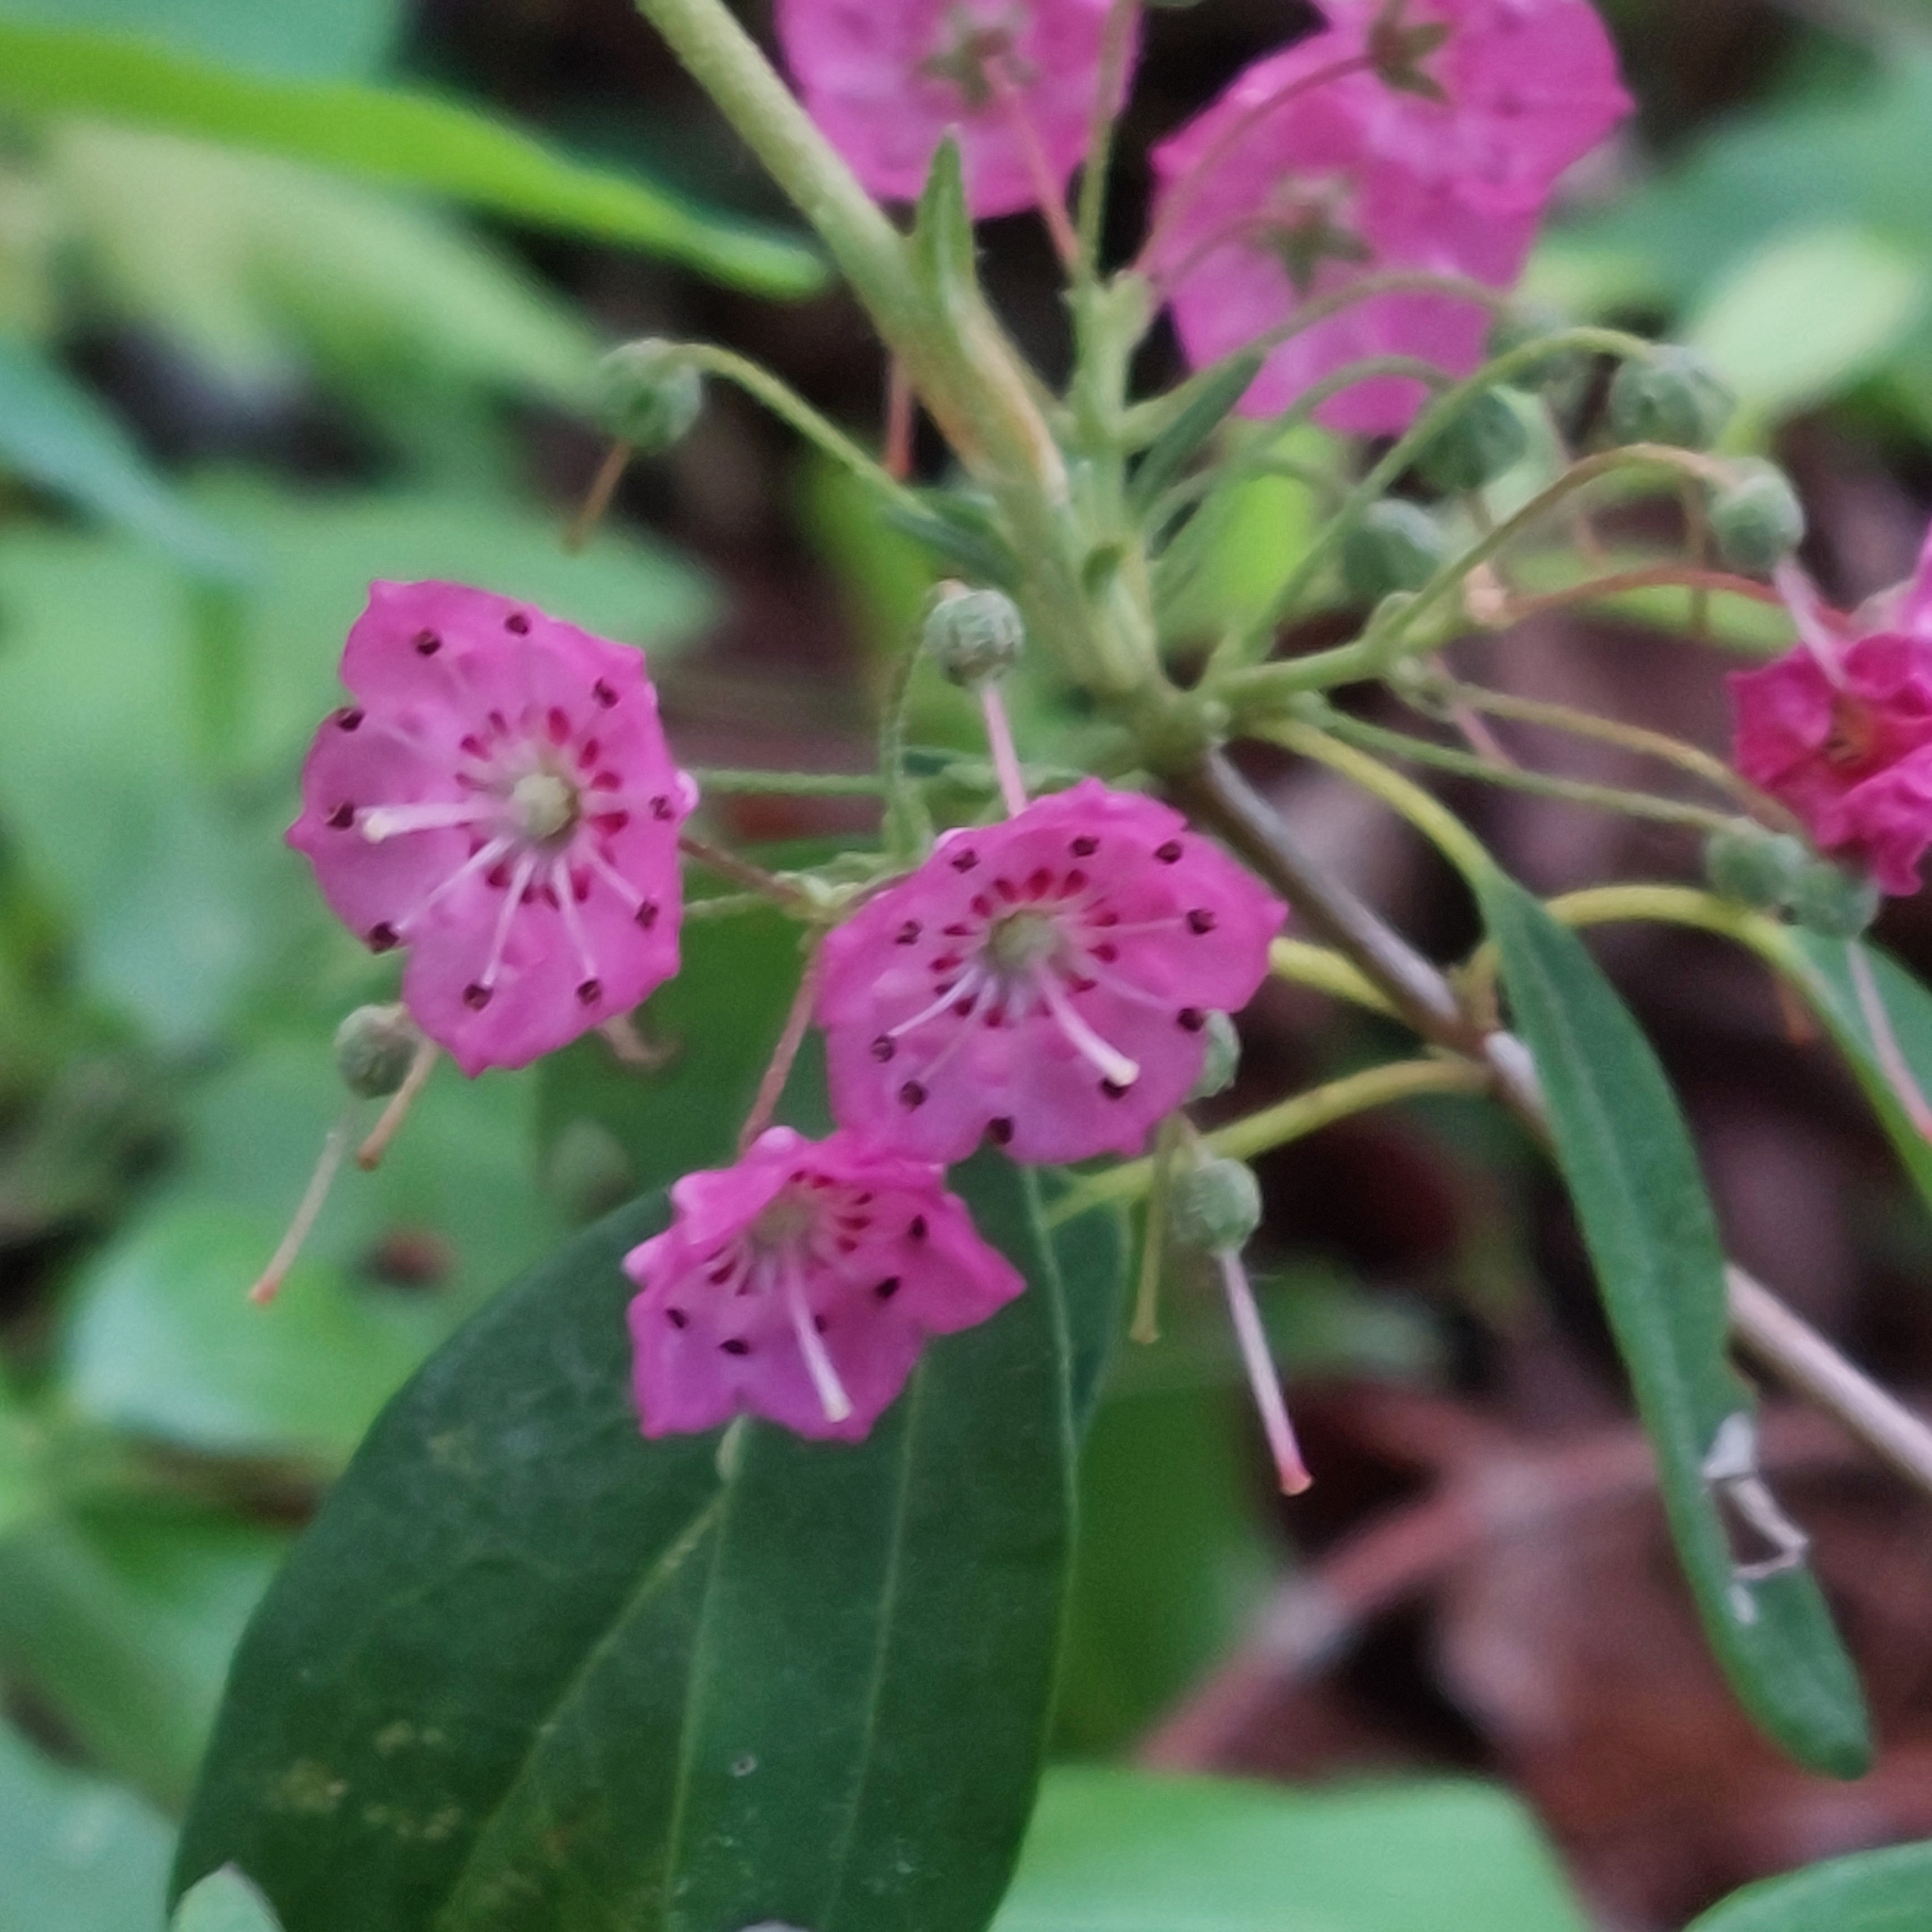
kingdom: Plantae
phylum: Tracheophyta
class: Magnoliopsida
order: Ericales
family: Ericaceae
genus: Kalmia
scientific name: Kalmia angustifolia
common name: Sheep-laurel
